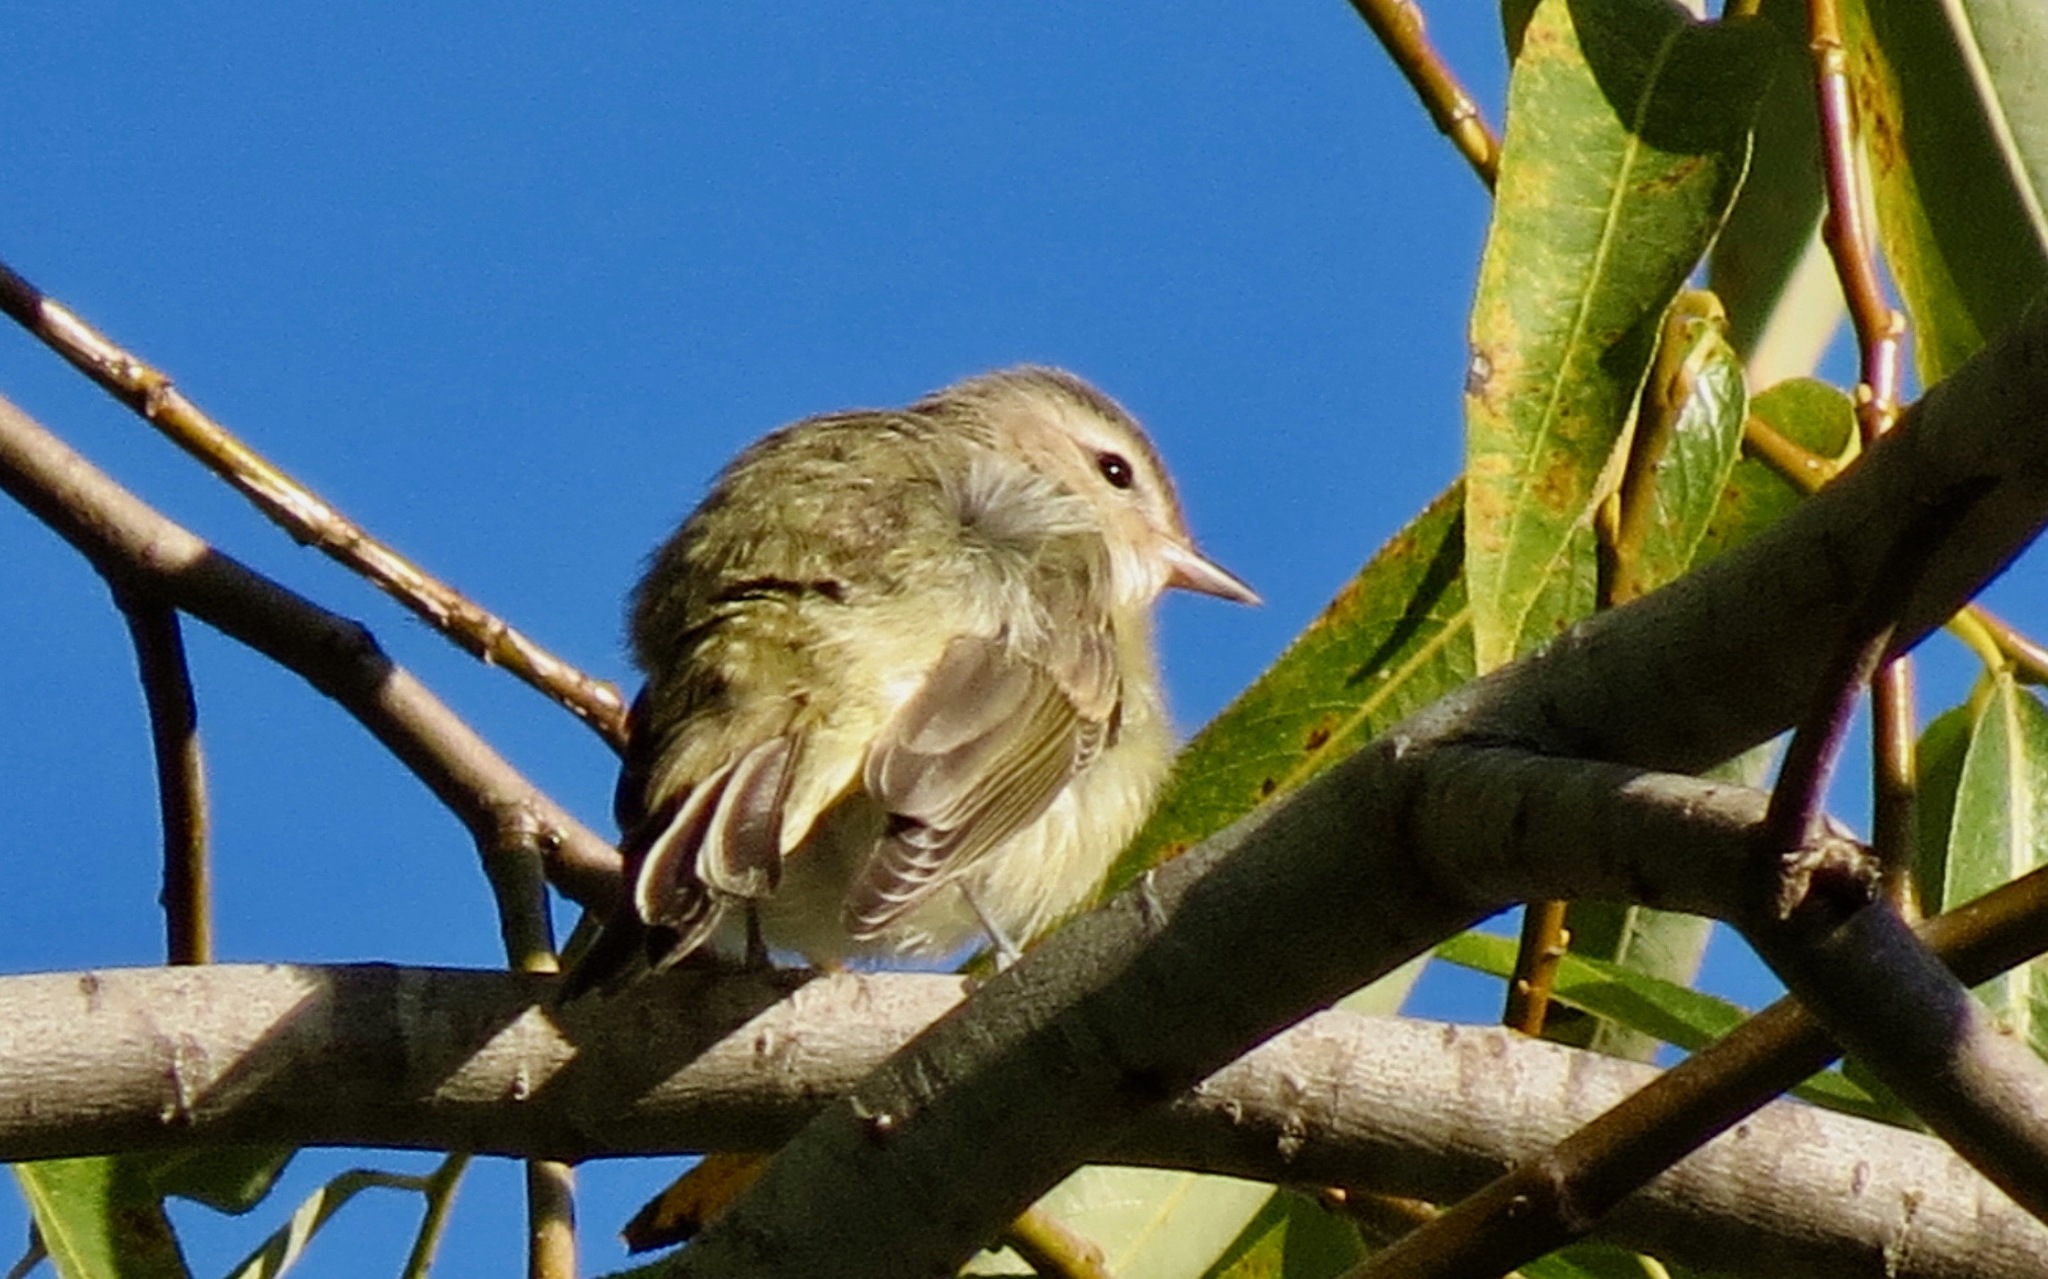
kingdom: Animalia
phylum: Chordata
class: Aves
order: Passeriformes
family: Vireonidae
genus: Vireo
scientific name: Vireo gilvus
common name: Warbling vireo
